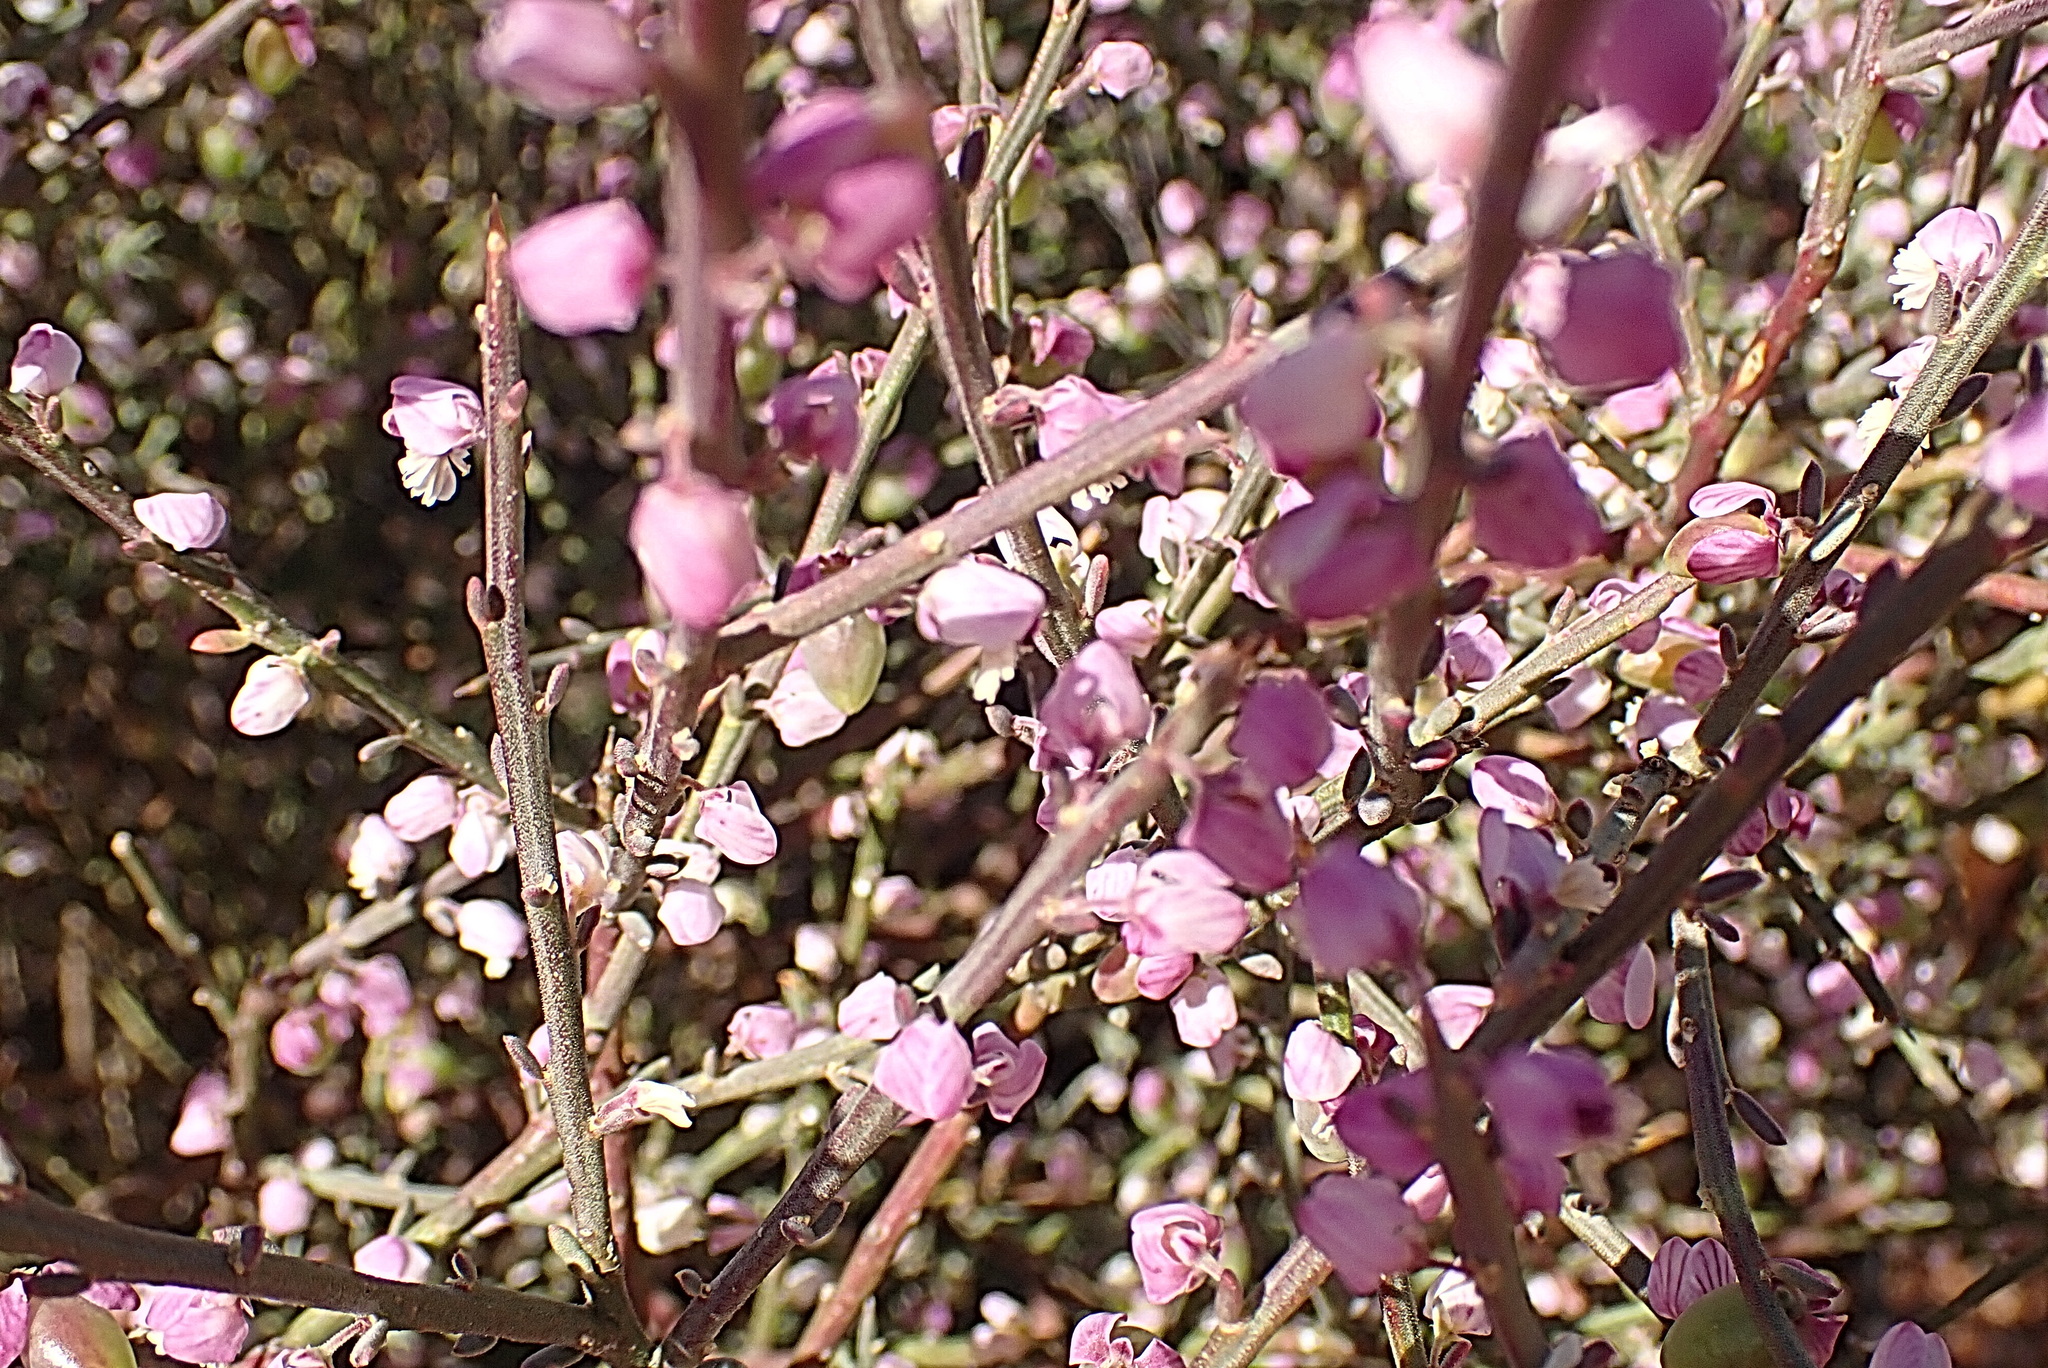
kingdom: Plantae
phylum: Tracheophyta
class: Magnoliopsida
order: Fabales
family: Polygalaceae
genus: Muraltia
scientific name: Muraltia spinosa
